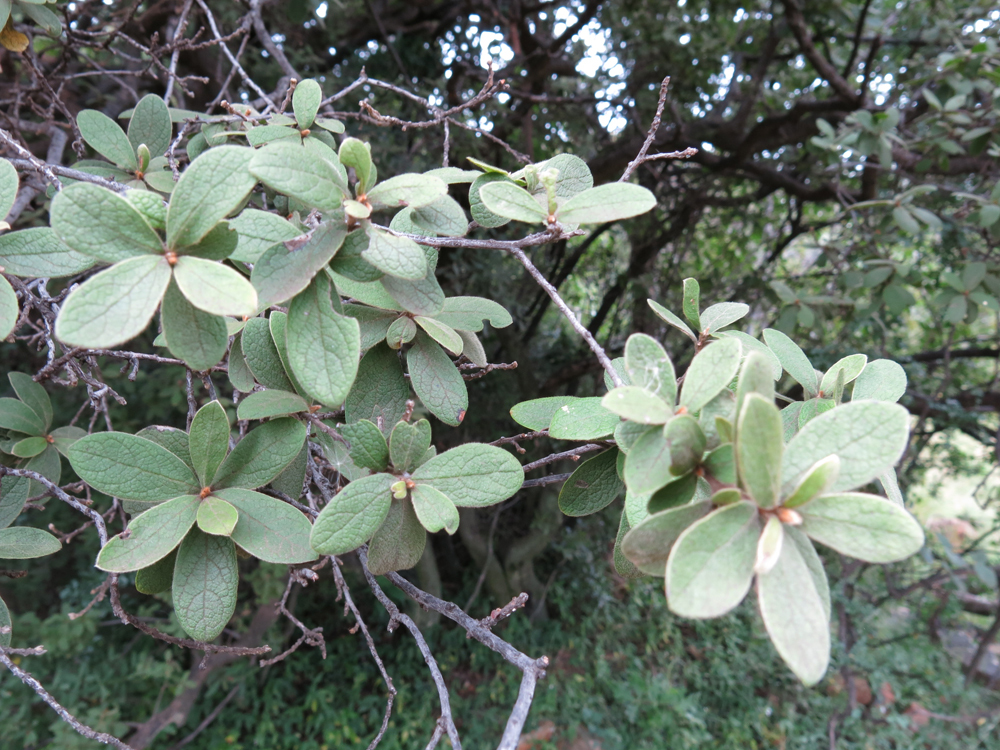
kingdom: Plantae
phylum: Tracheophyta
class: Magnoliopsida
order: Ericales
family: Ebenaceae
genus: Diospyros
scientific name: Diospyros lycioides
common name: Red star apple
